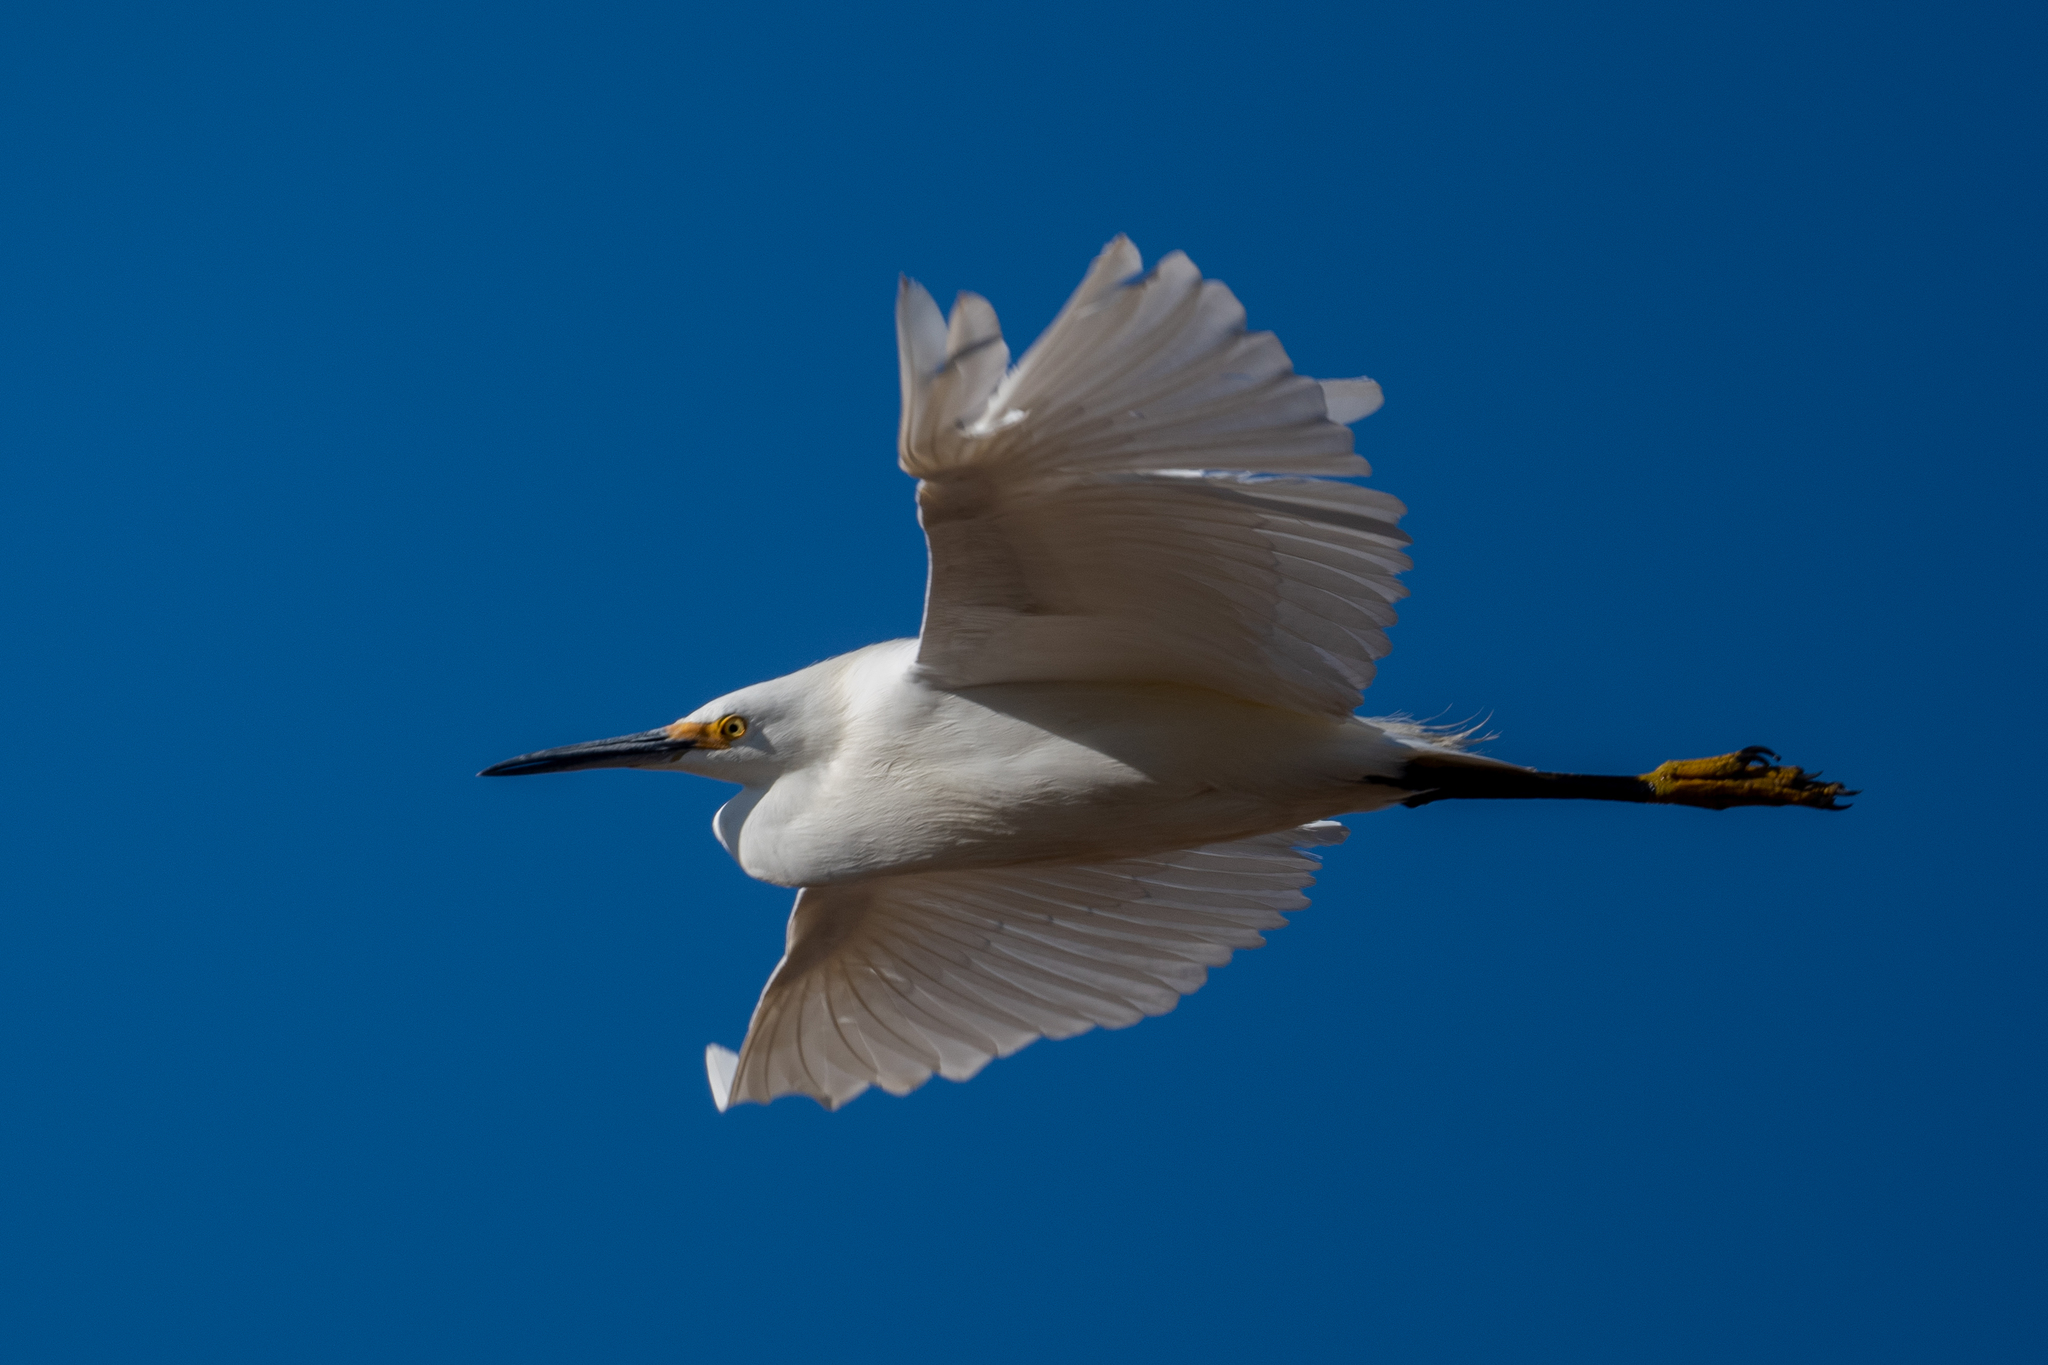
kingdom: Animalia
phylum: Chordata
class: Aves
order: Pelecaniformes
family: Ardeidae
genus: Egretta
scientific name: Egretta thula
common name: Snowy egret
